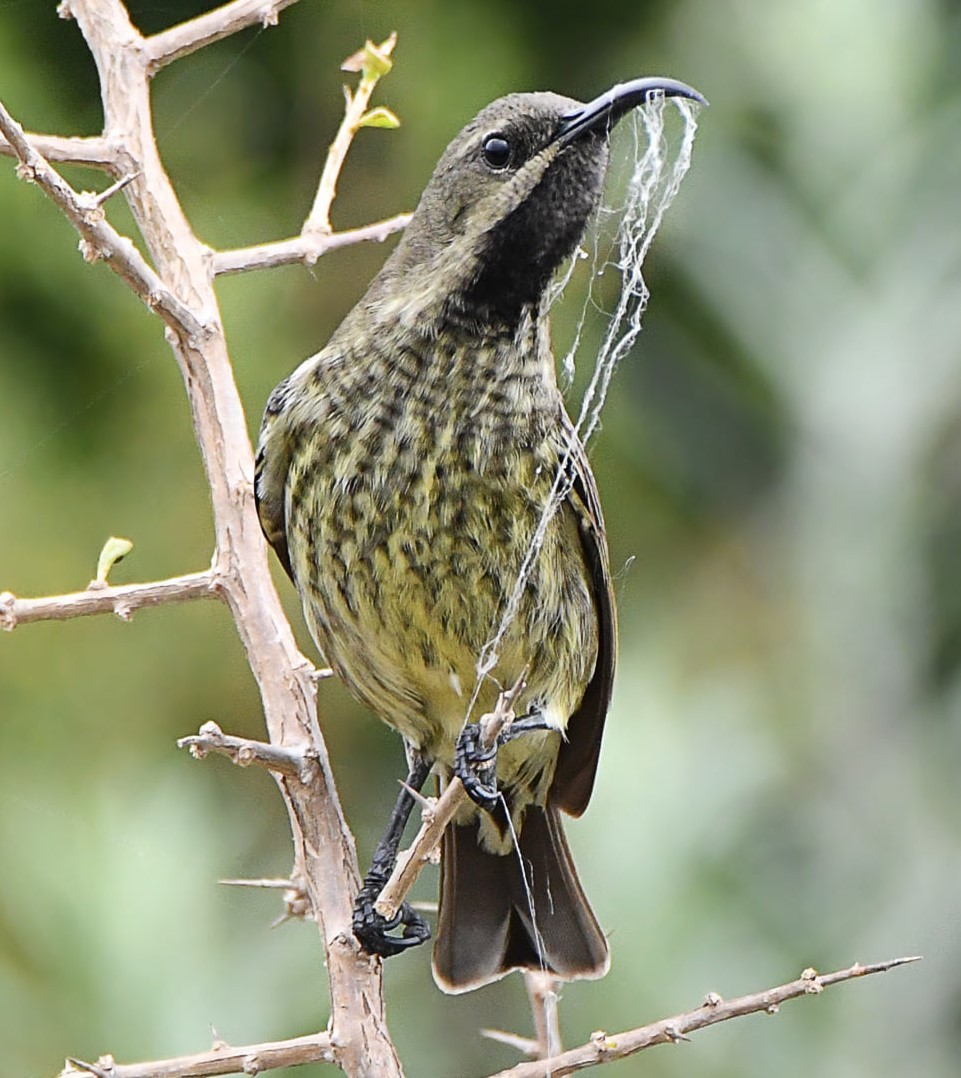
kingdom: Animalia
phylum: Chordata
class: Aves
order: Passeriformes
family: Nectariniidae
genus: Chalcomitra
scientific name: Chalcomitra amethystina
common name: Amethyst sunbird
